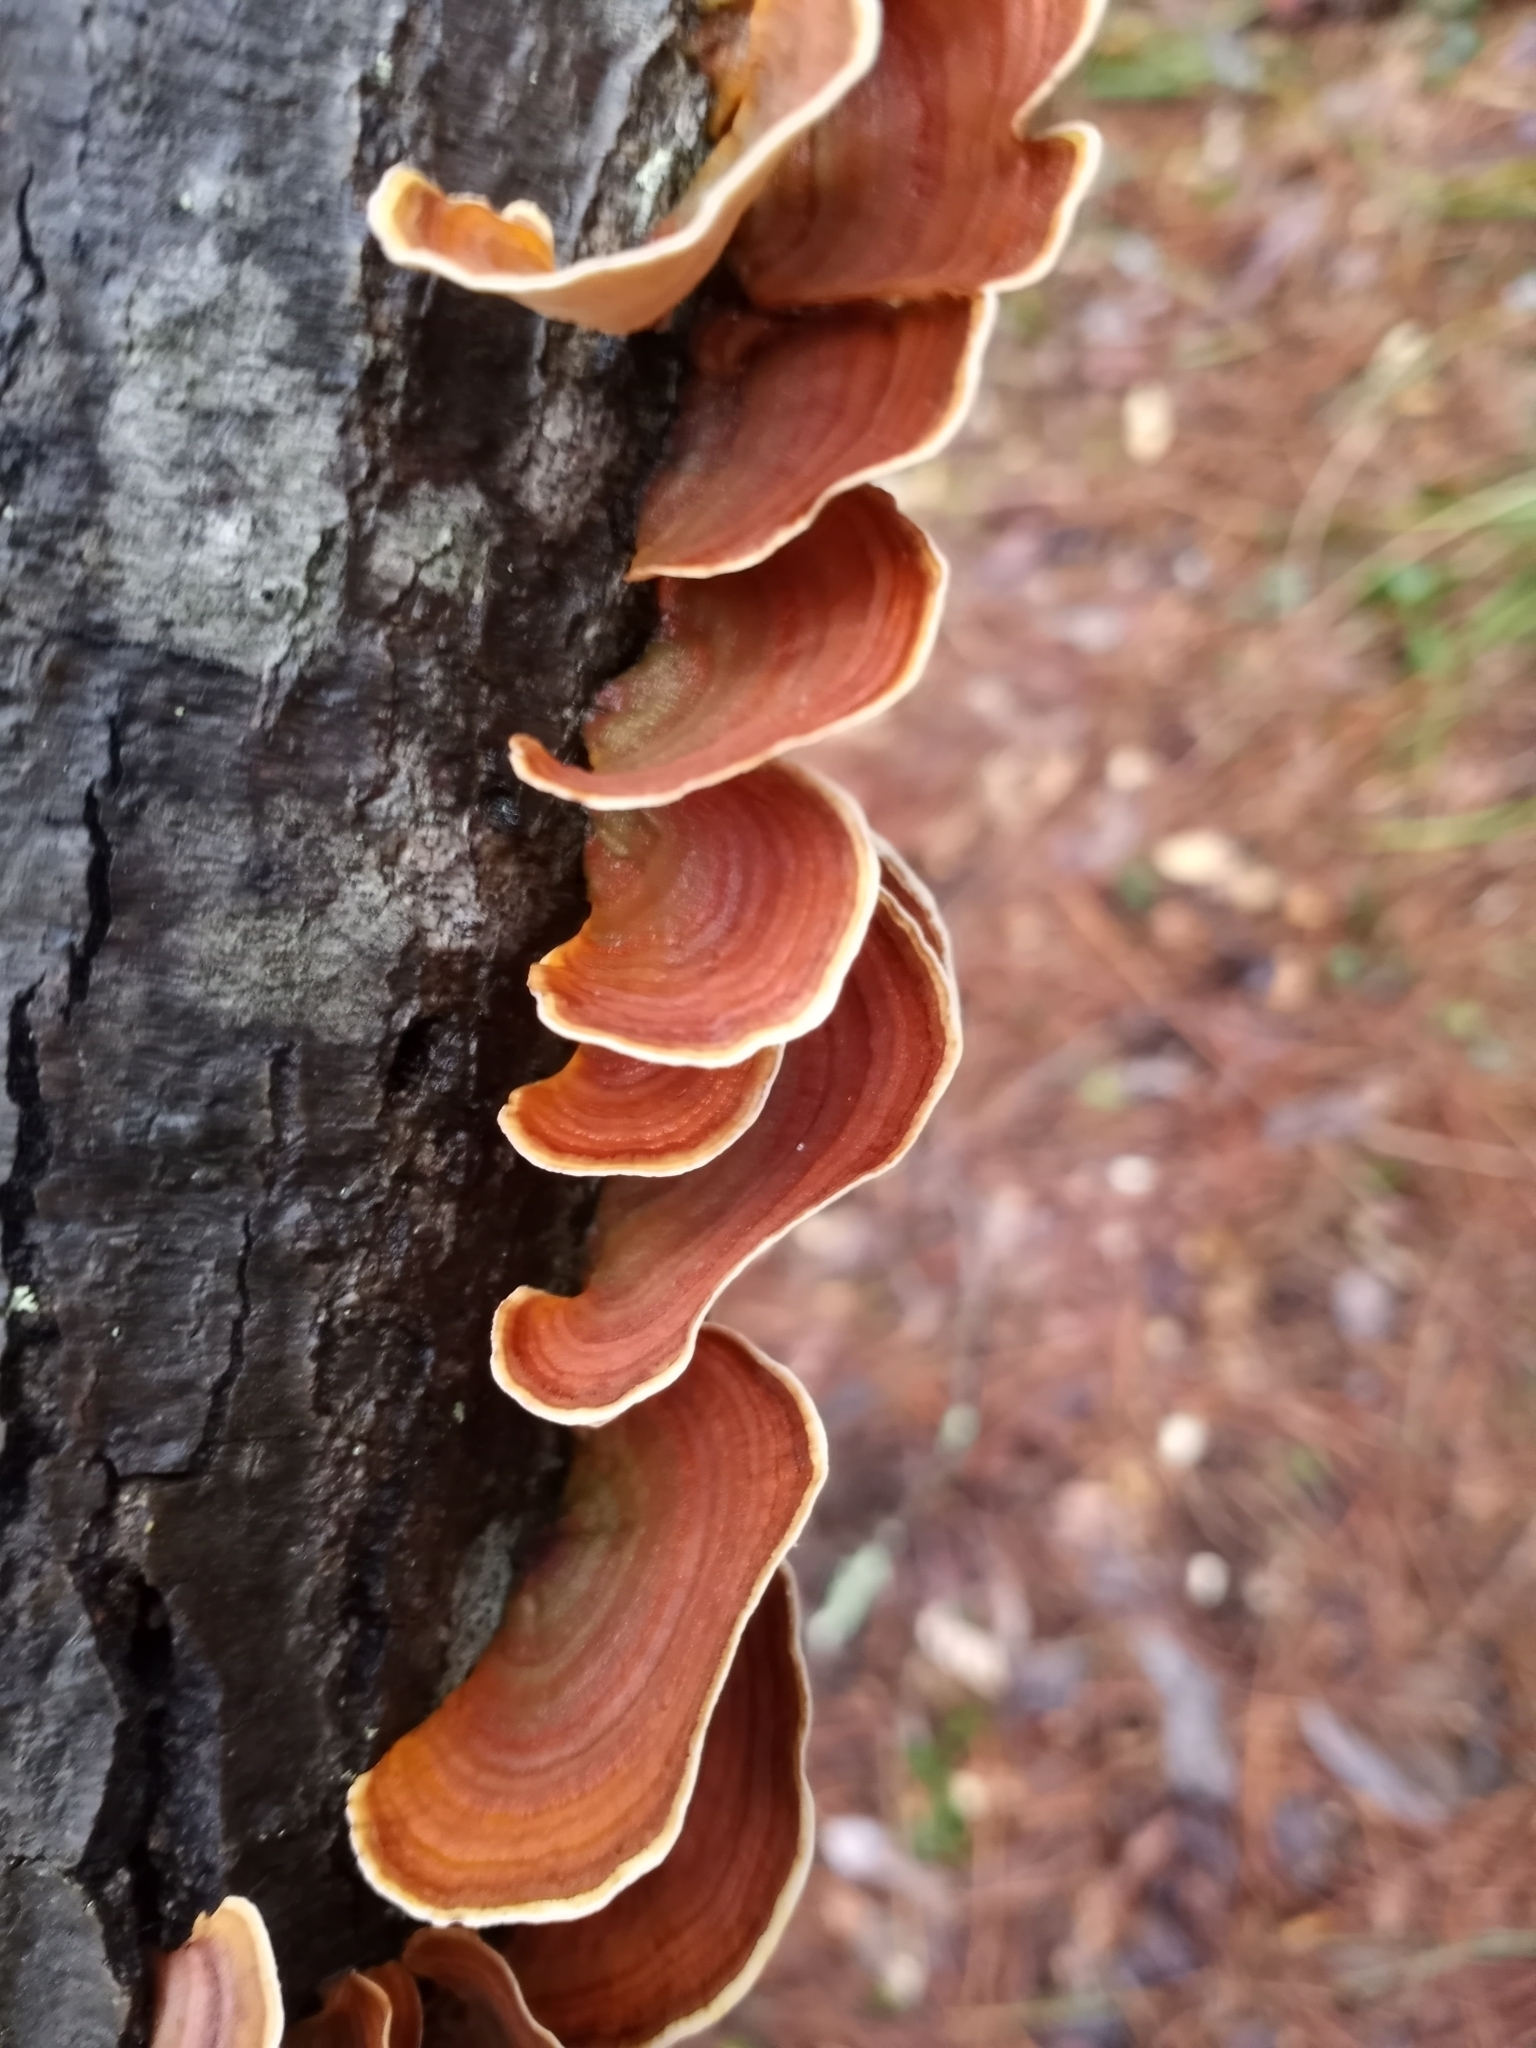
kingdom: Fungi
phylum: Basidiomycota
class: Agaricomycetes
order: Russulales
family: Stereaceae
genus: Stereum
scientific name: Stereum lobatum
